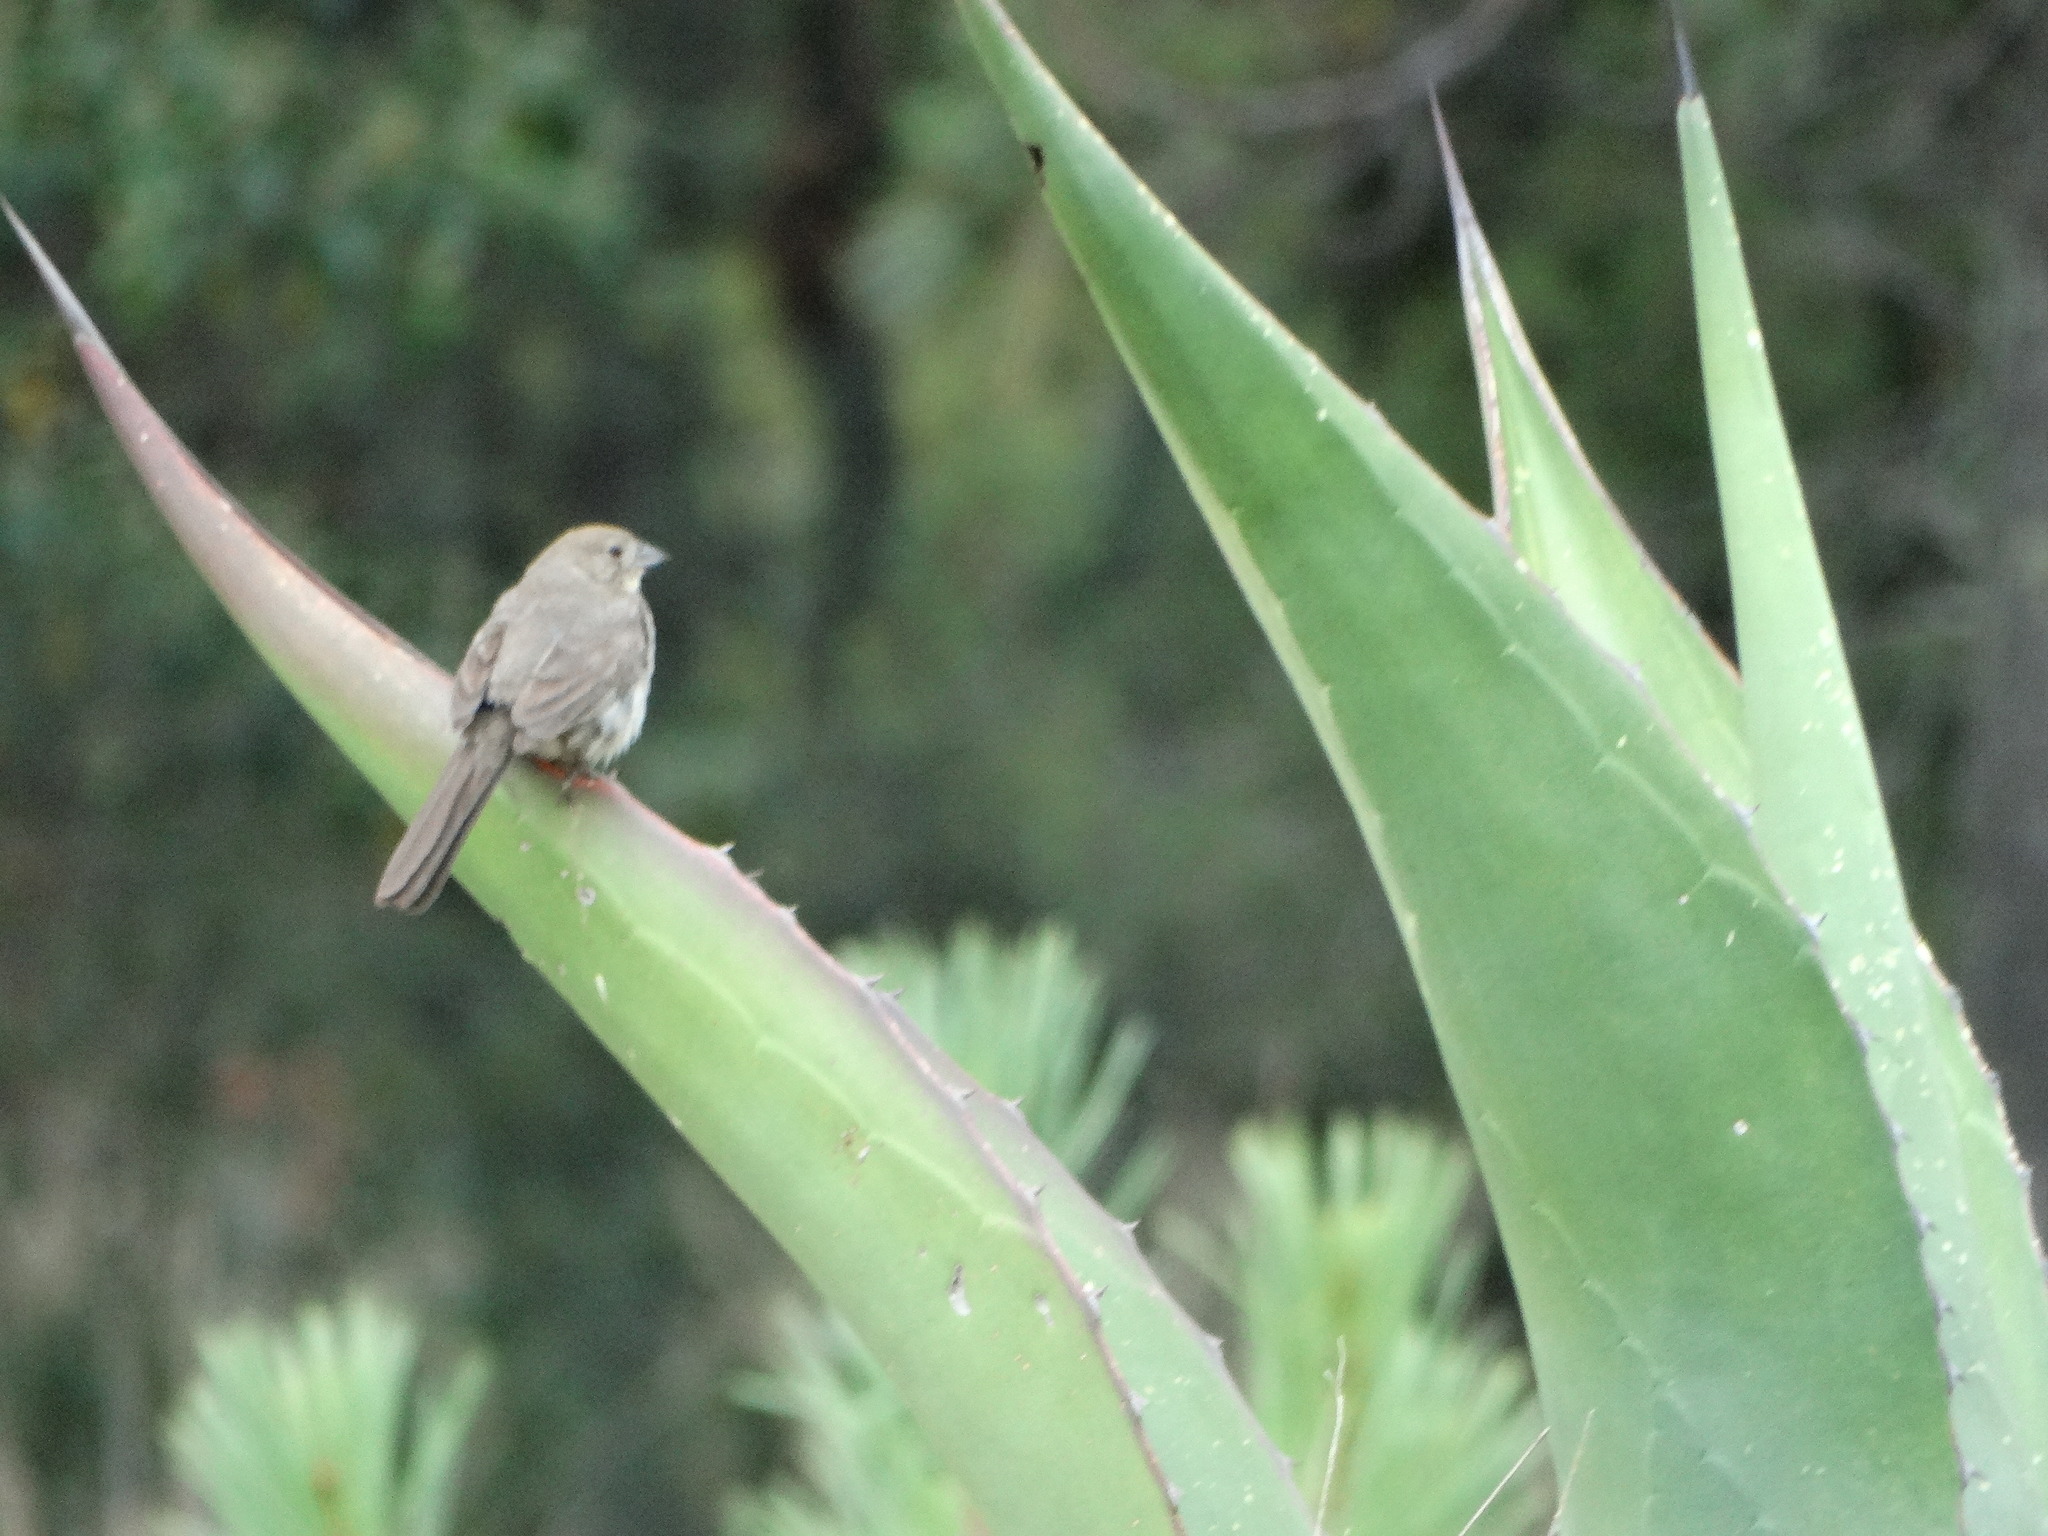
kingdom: Animalia
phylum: Chordata
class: Aves
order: Passeriformes
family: Passerellidae
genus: Melozone
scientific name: Melozone fusca
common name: Canyon towhee
